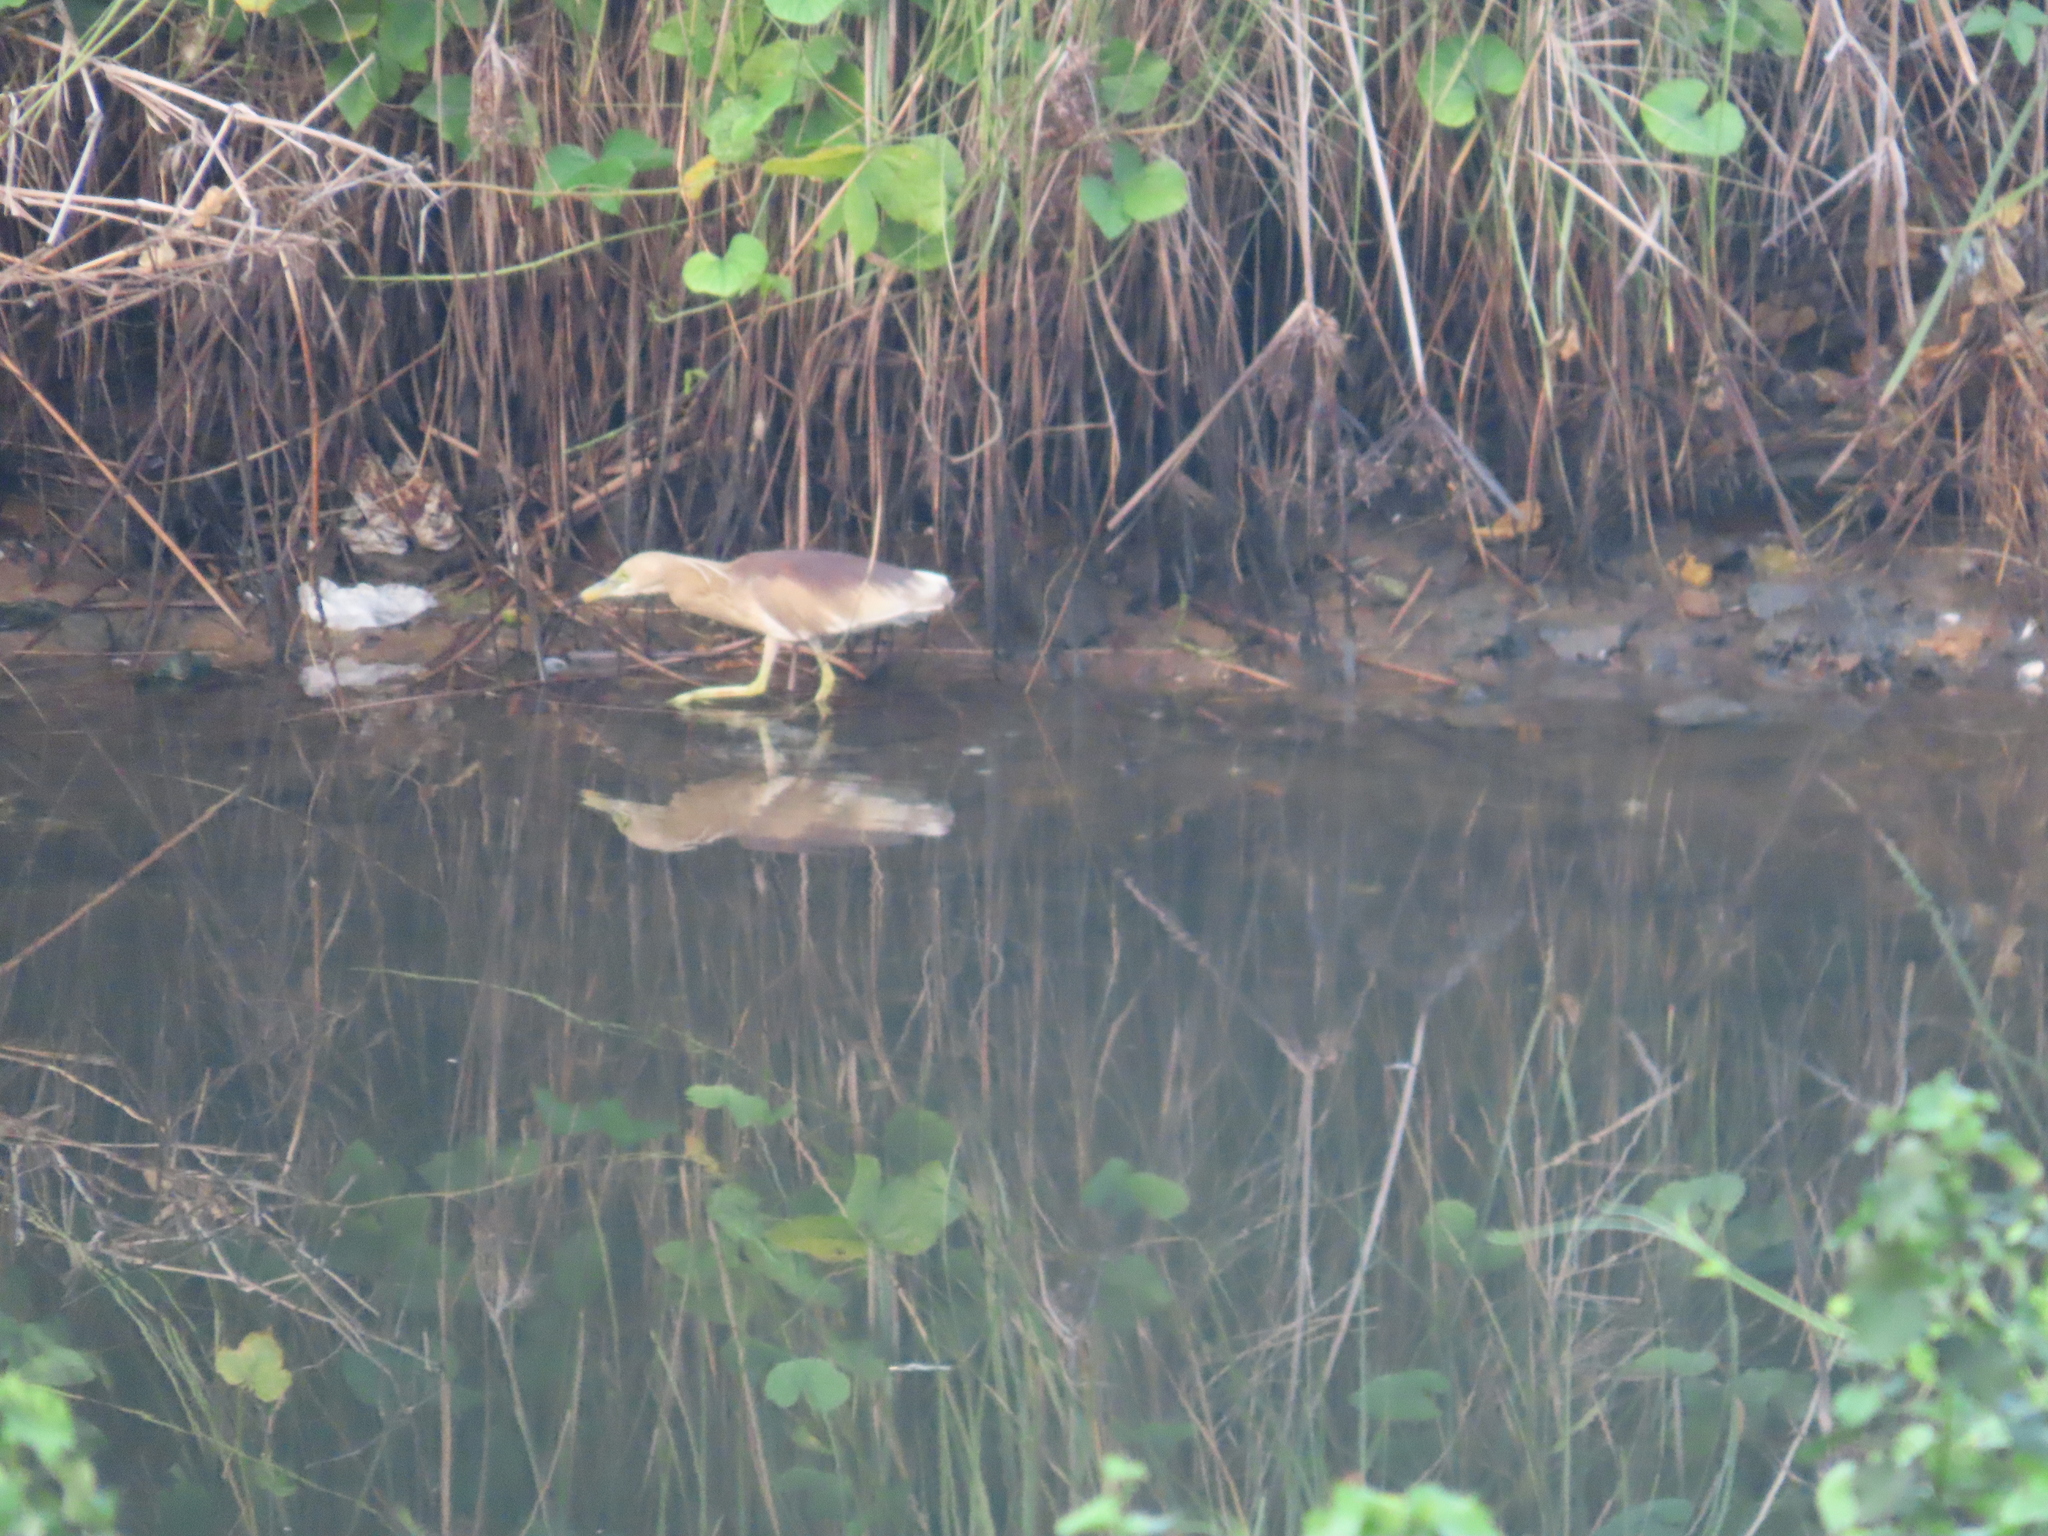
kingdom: Animalia
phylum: Chordata
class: Aves
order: Pelecaniformes
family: Ardeidae
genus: Ardeola
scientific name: Ardeola grayii
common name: Indian pond heron
